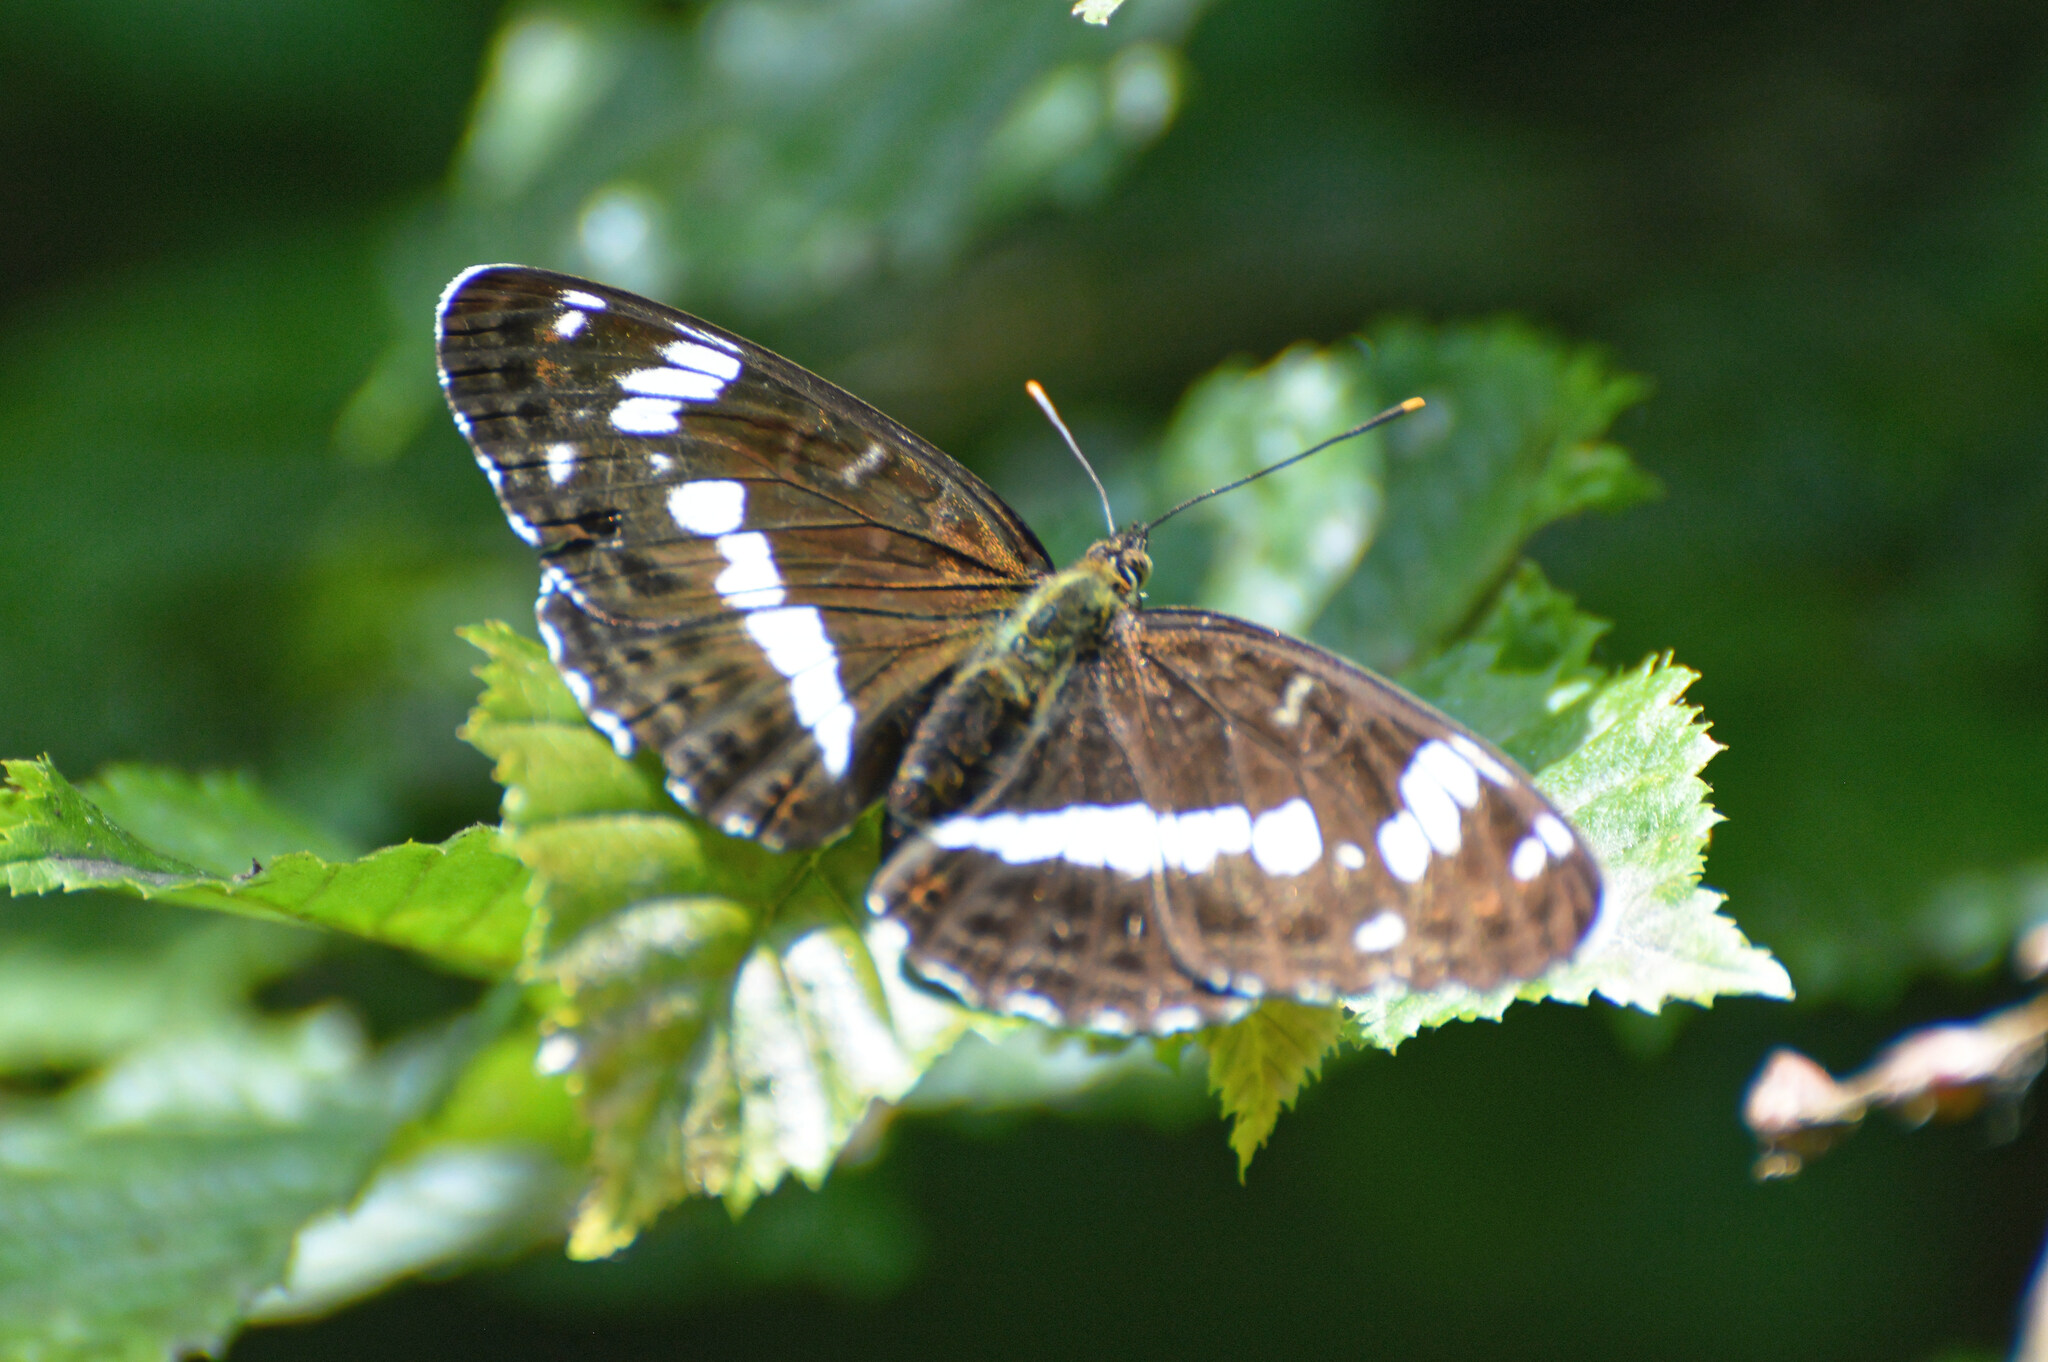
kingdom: Animalia
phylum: Arthropoda
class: Insecta
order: Lepidoptera
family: Nymphalidae
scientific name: Nymphalidae
